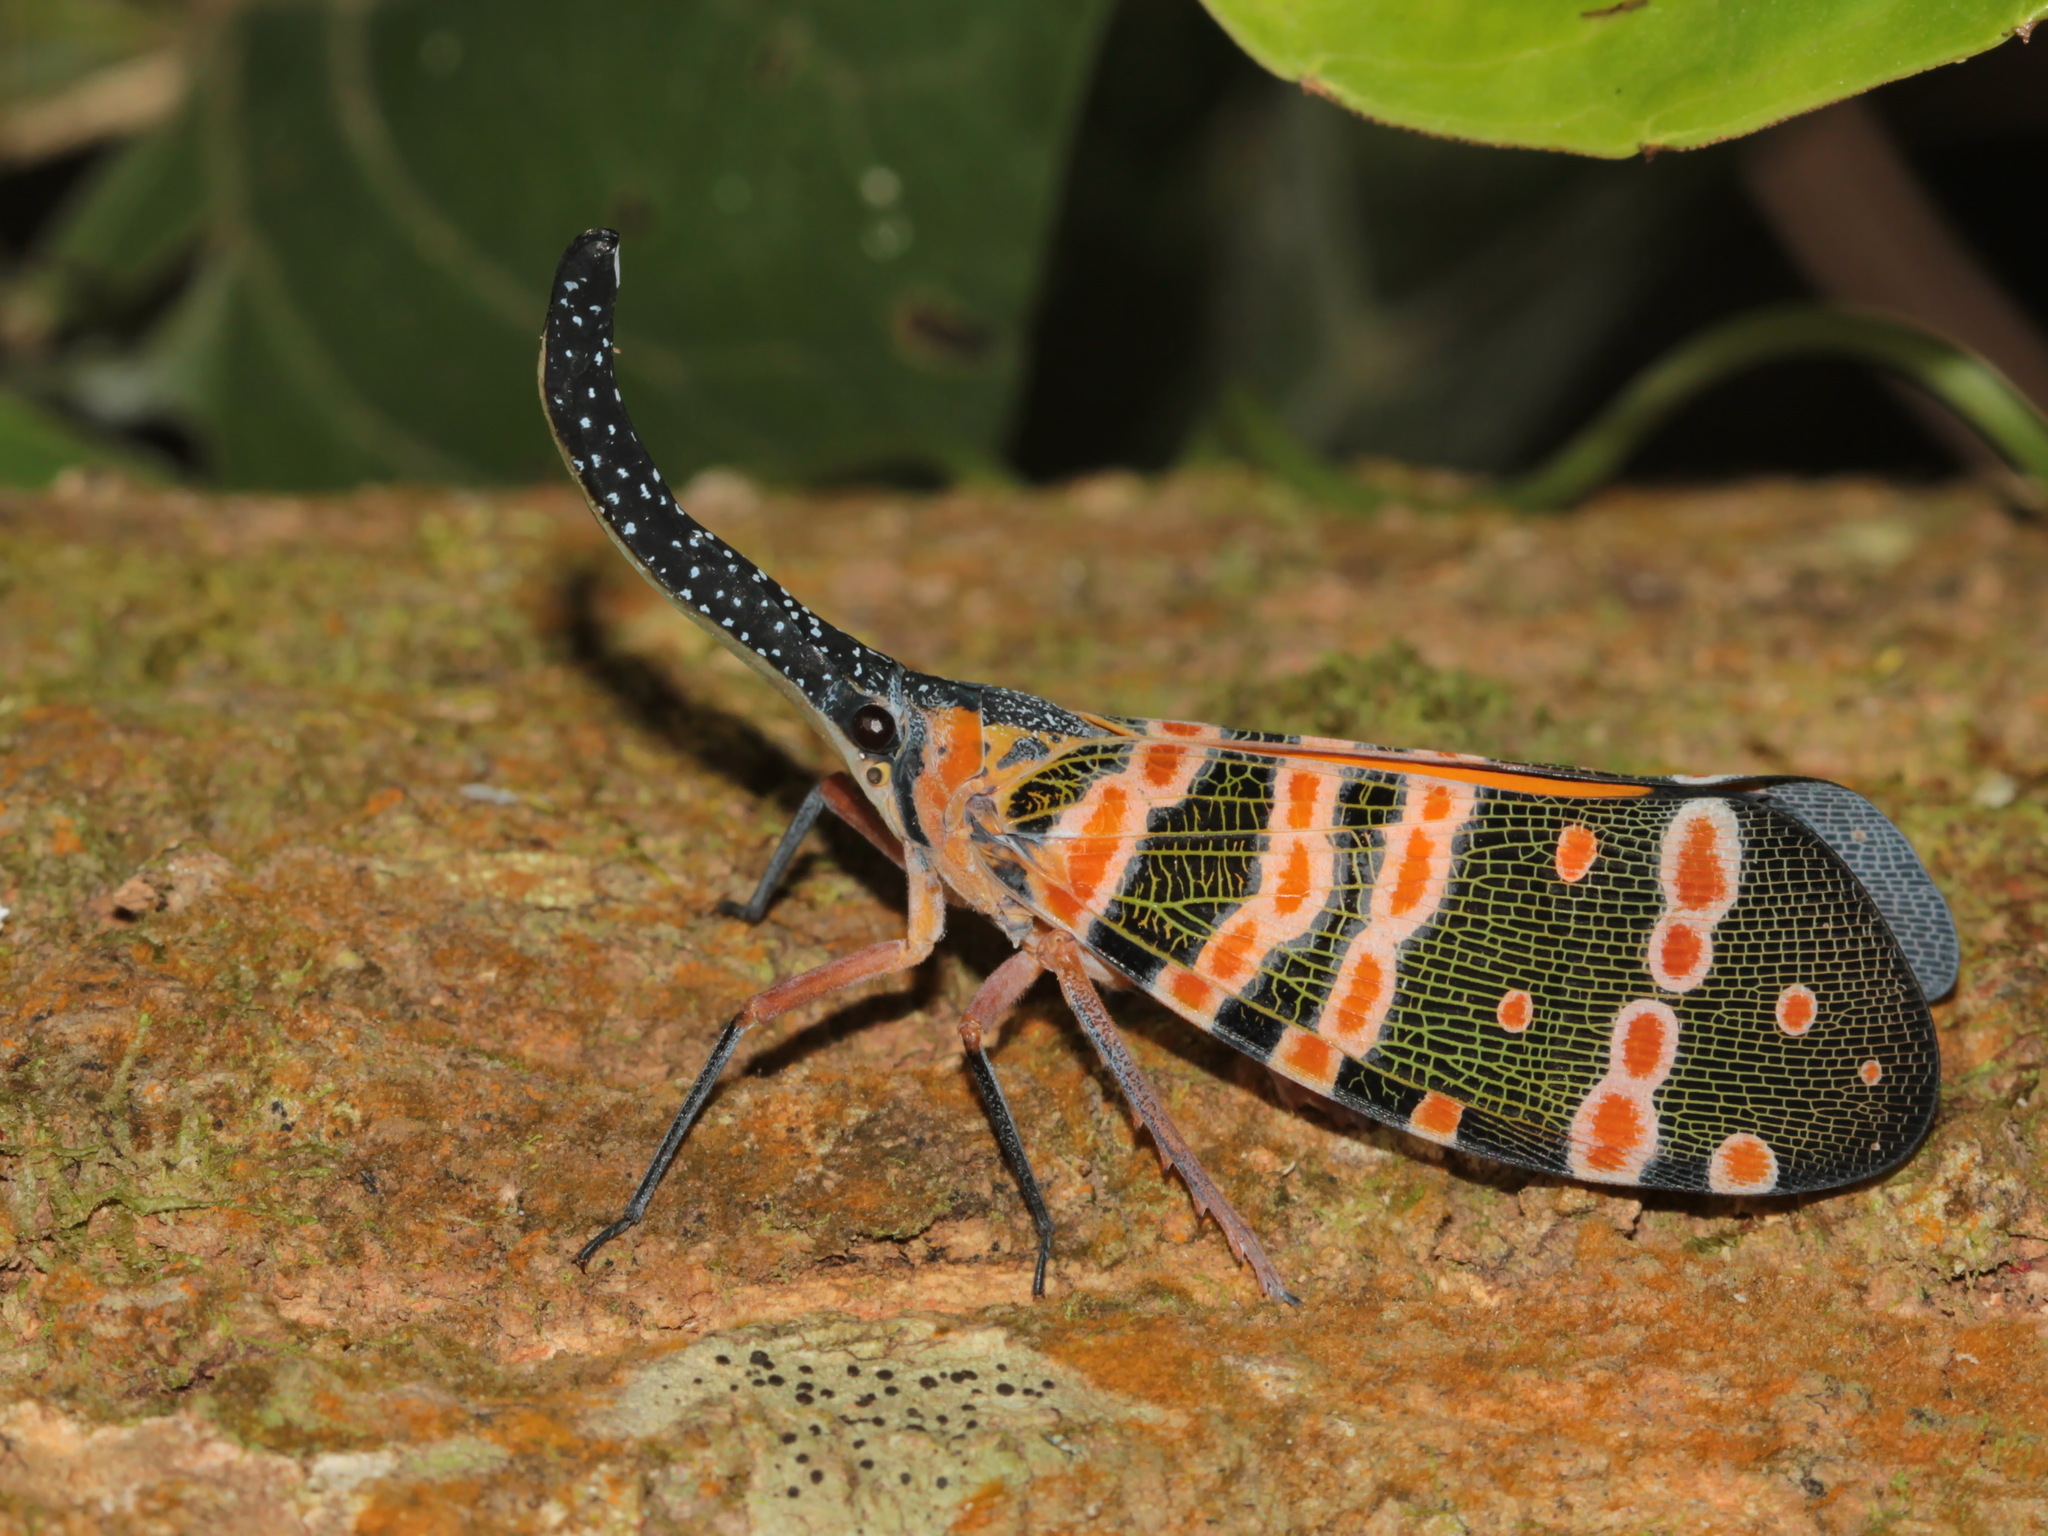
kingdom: Animalia
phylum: Arthropoda
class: Insecta
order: Hemiptera
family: Fulgoridae
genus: Pyrops
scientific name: Pyrops spinolae
